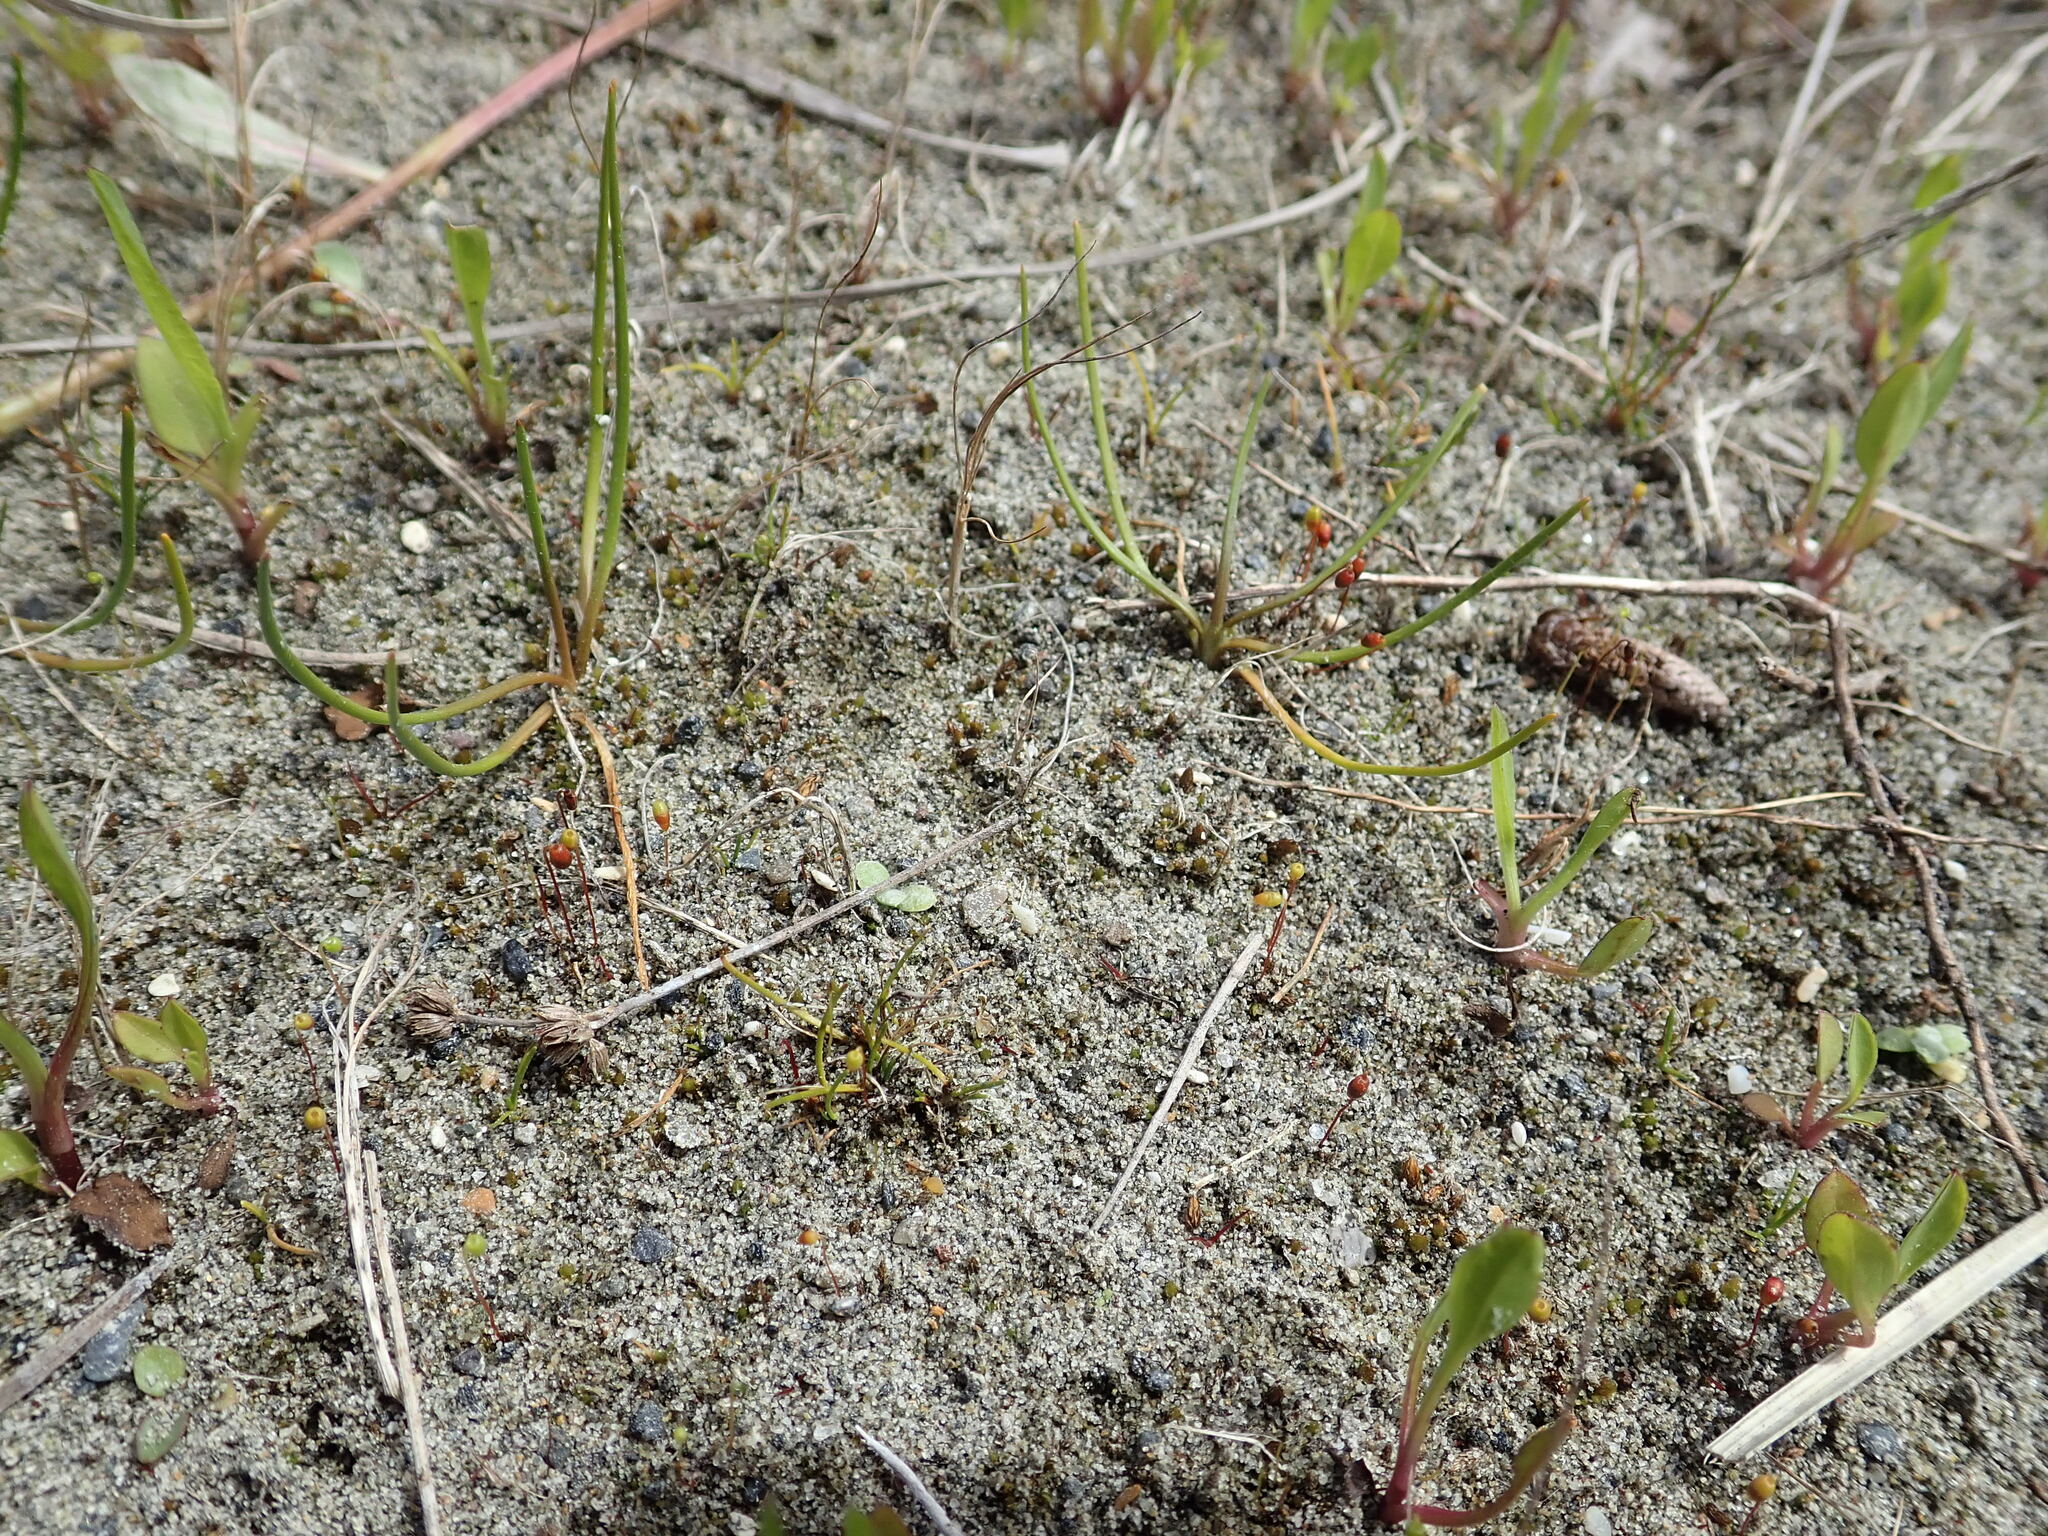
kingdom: Plantae
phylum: Tracheophyta
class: Liliopsida
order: Alismatales
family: Juncaginaceae
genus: Triglochin
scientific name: Triglochin striata
